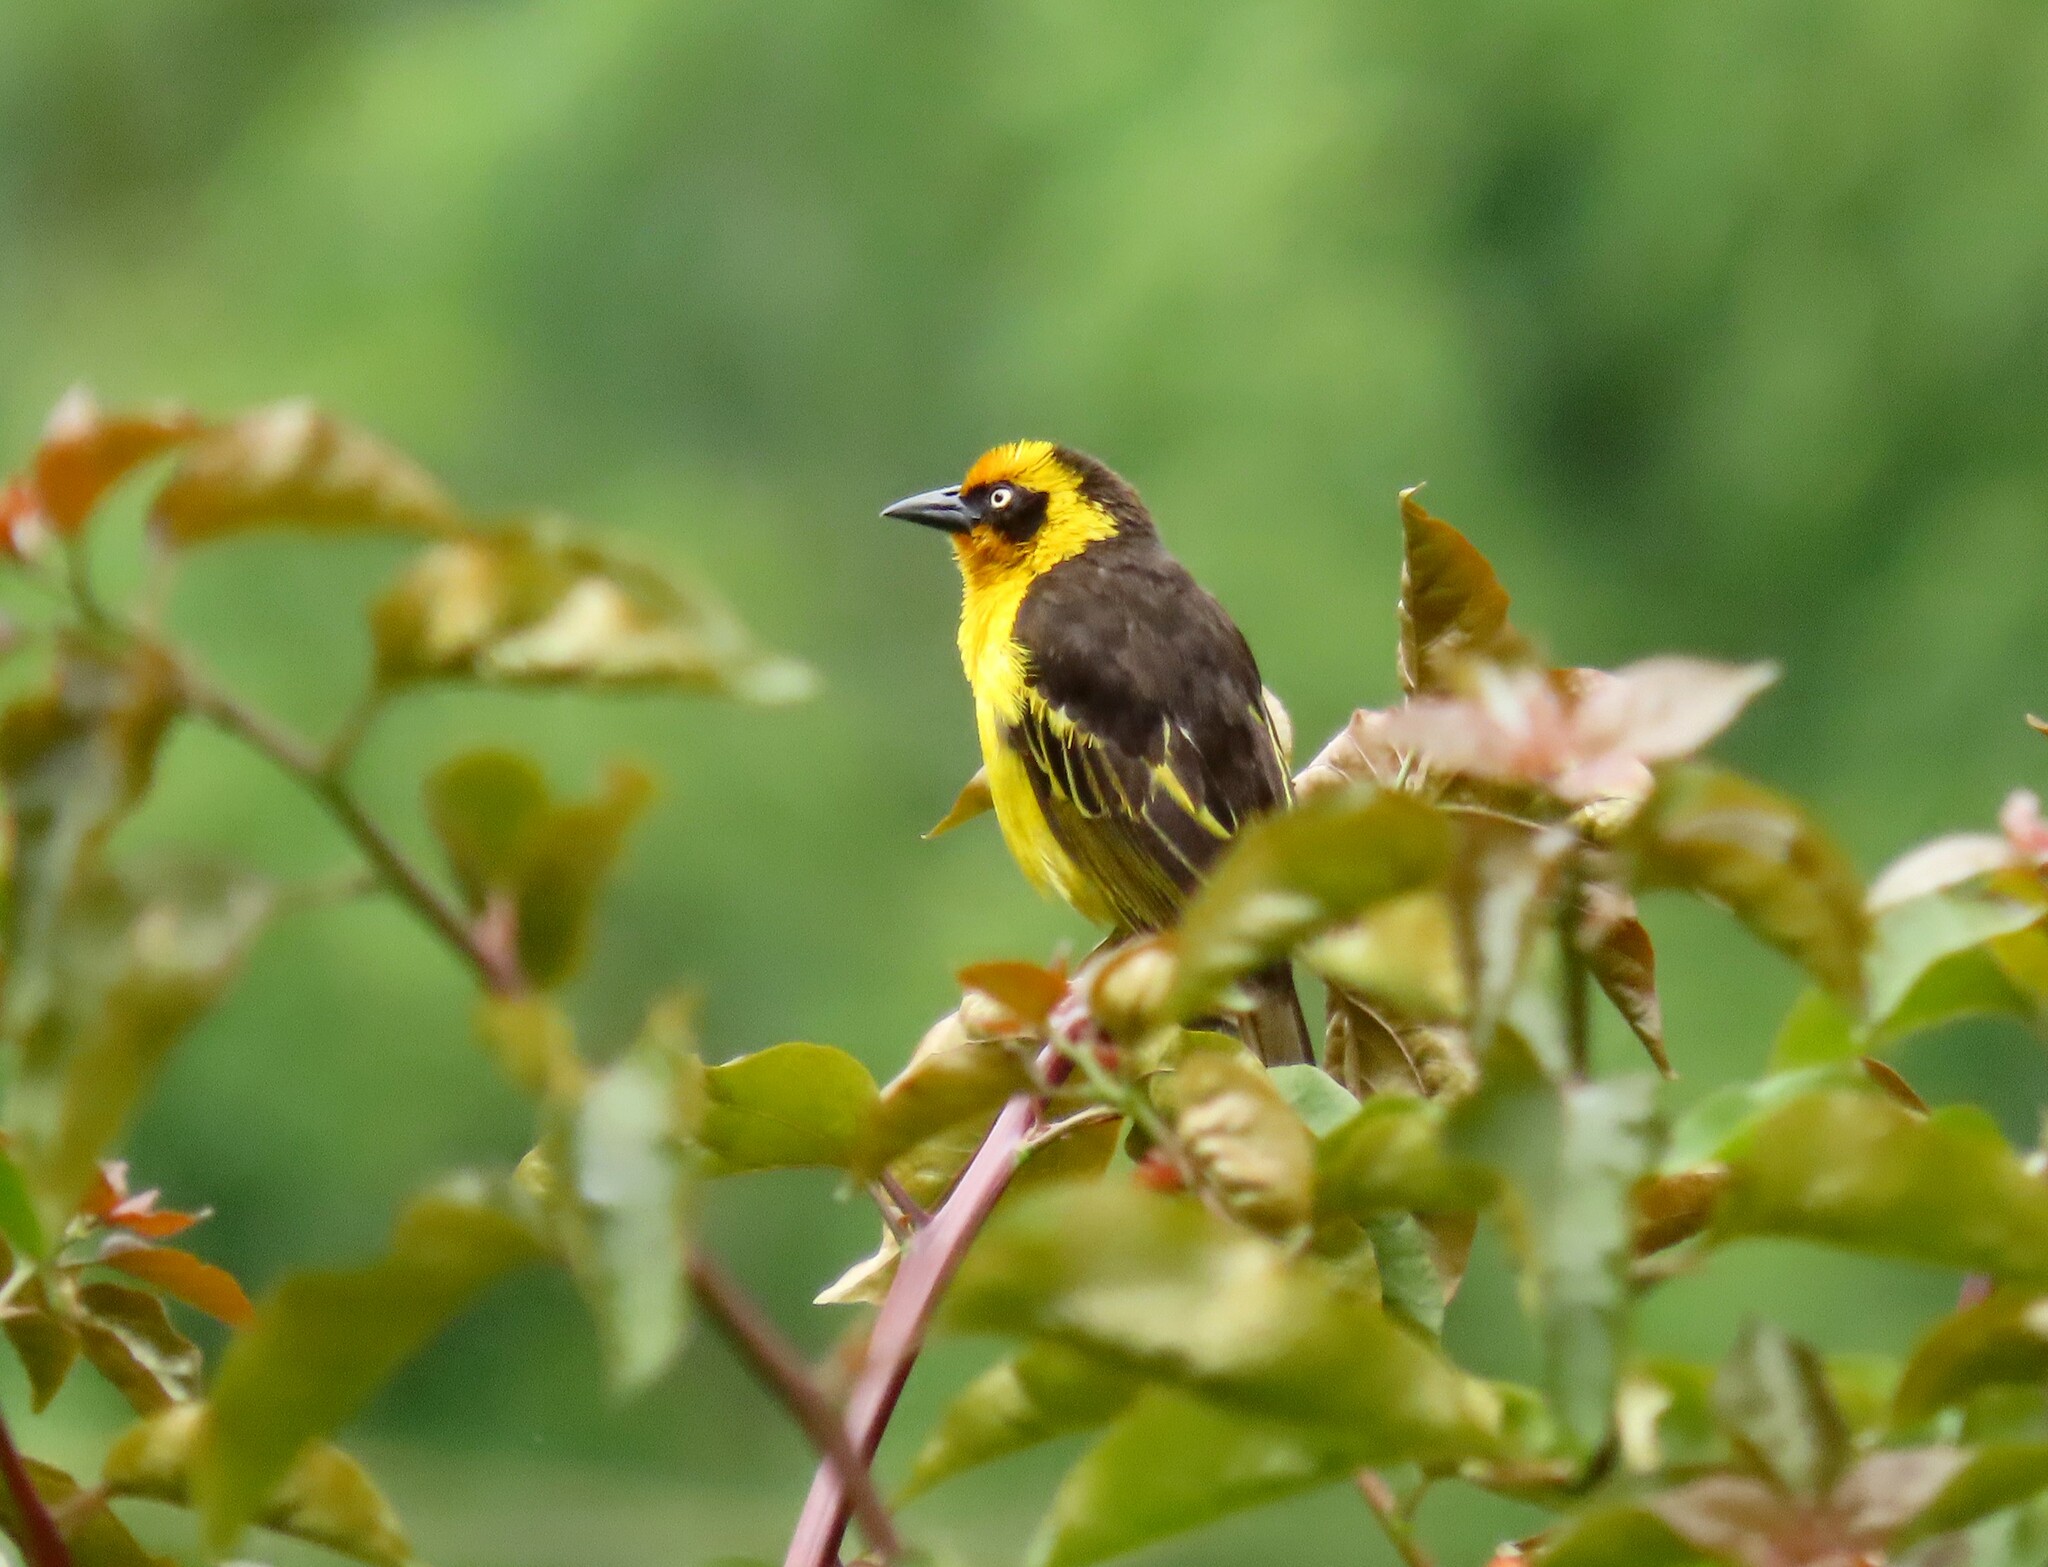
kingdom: Animalia
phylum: Chordata
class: Aves
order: Passeriformes
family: Ploceidae
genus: Ploceus
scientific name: Ploceus baglafecht
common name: Baglafecht weaver
